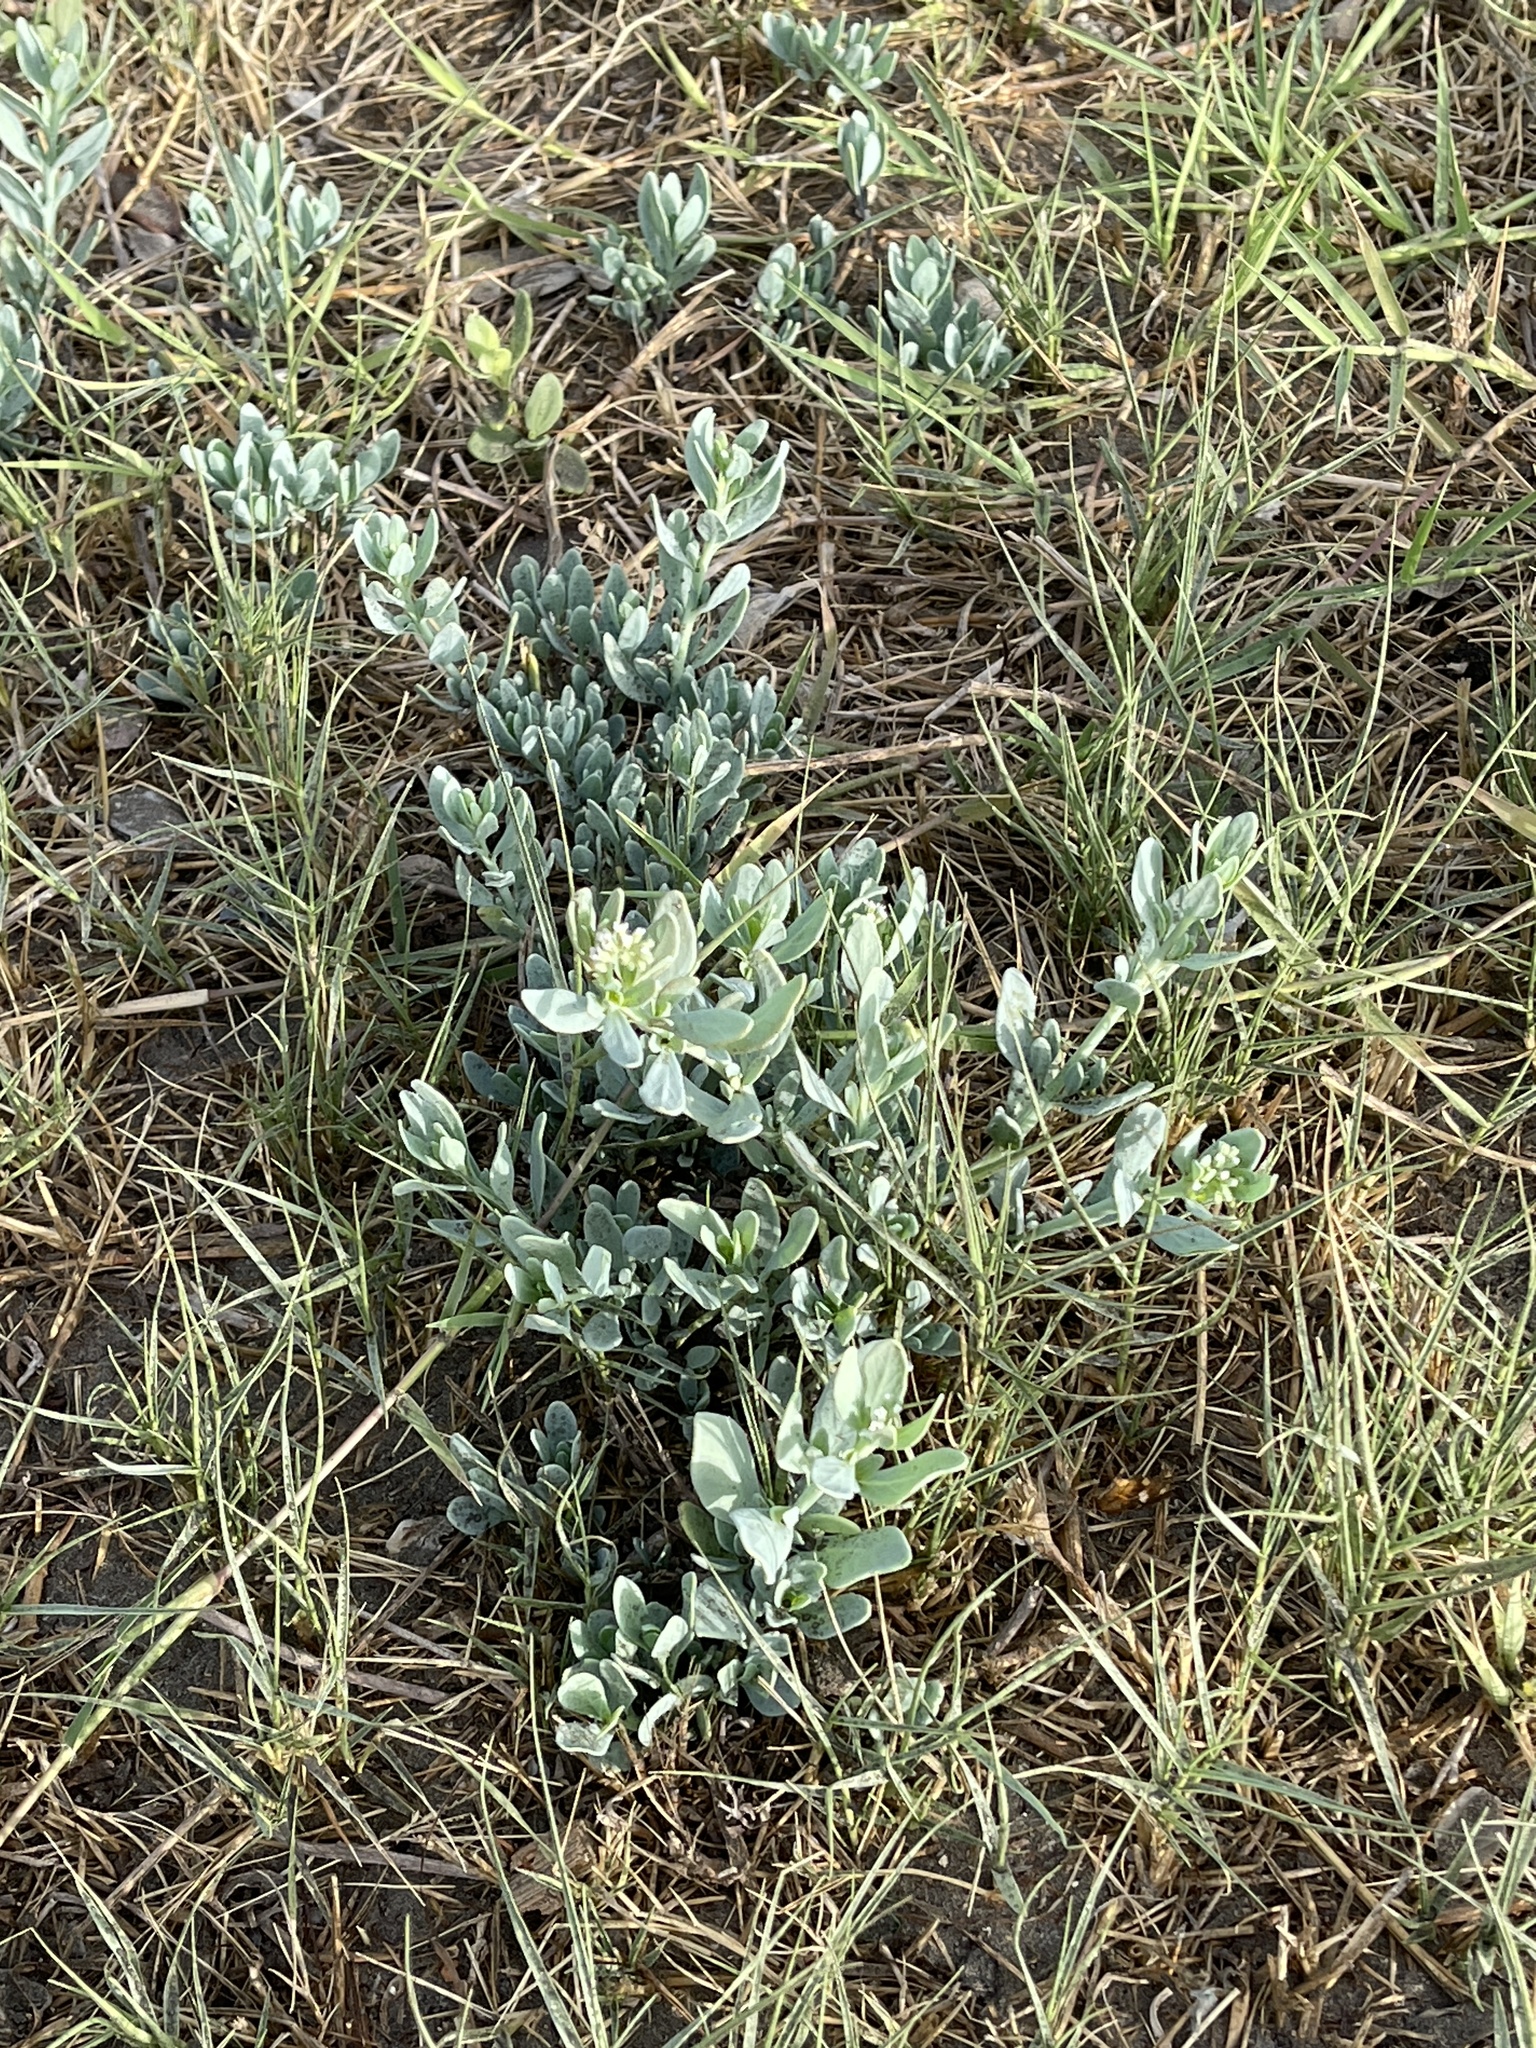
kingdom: Plantae
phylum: Tracheophyta
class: Magnoliopsida
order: Boraginales
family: Heliotropiaceae
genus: Heliotropium
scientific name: Heliotropium curassavicum
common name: Seaside heliotrope
